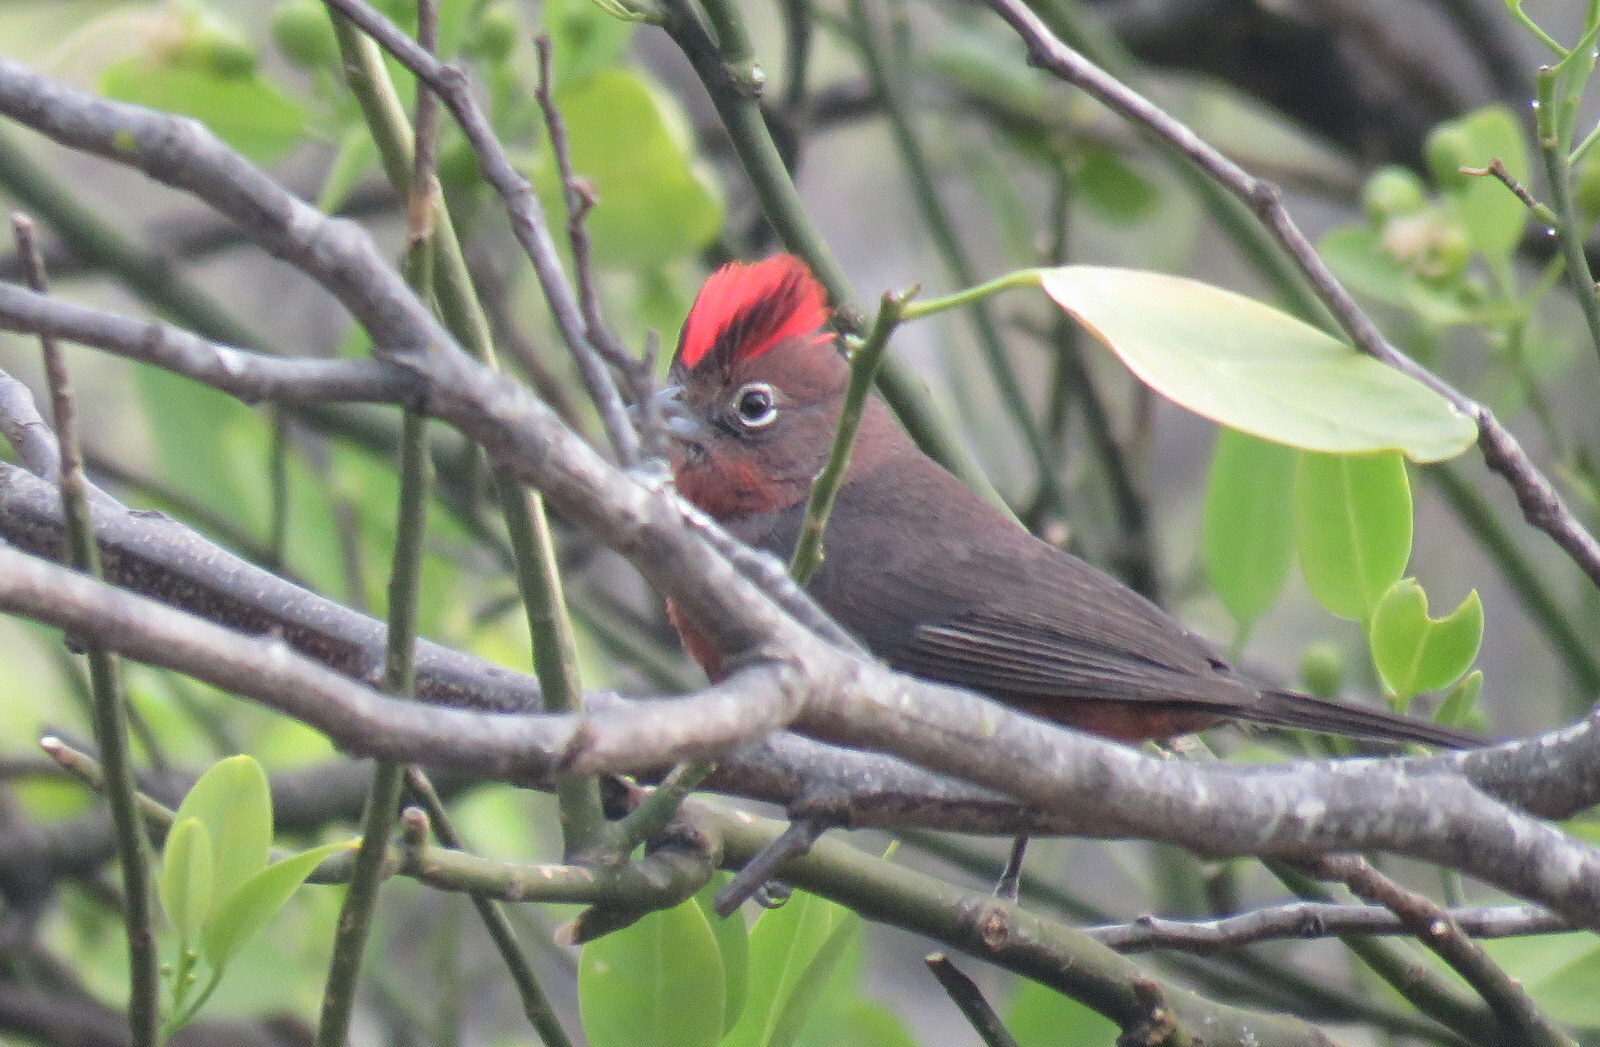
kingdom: Animalia
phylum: Chordata
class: Aves
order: Passeriformes
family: Thraupidae
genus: Coryphospingus
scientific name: Coryphospingus cucullatus
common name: Red pileated finch
